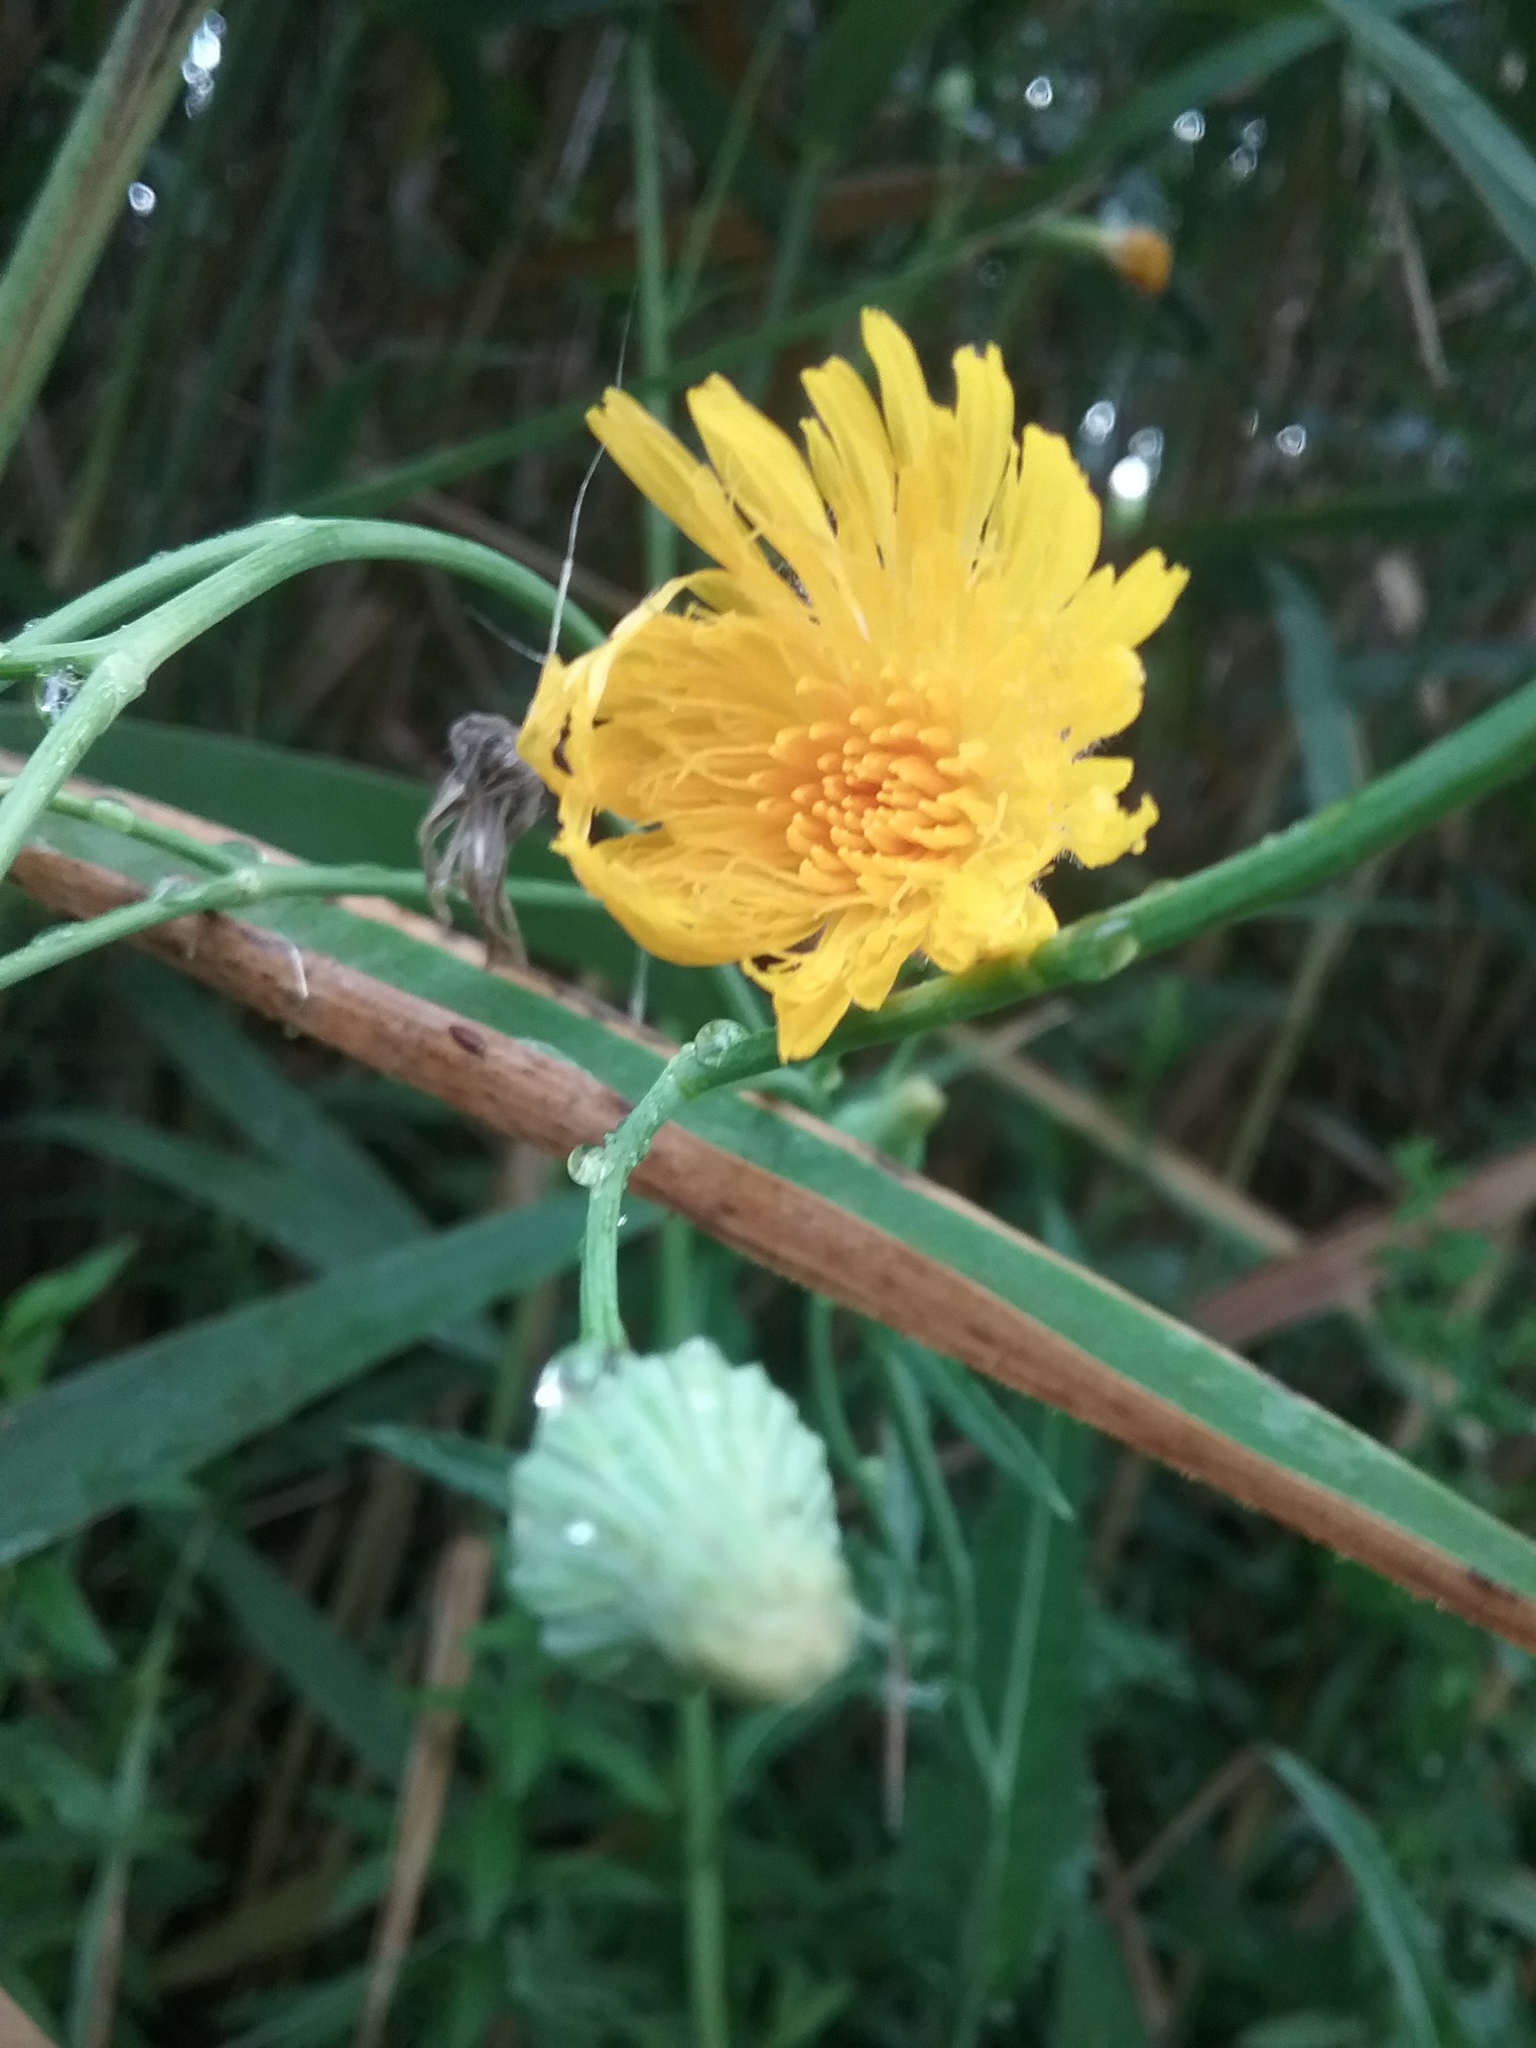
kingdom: Plantae
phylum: Tracheophyta
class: Magnoliopsida
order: Asterales
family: Asteraceae
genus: Sonchus
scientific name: Sonchus arvensis
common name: Perennial sow-thistle
